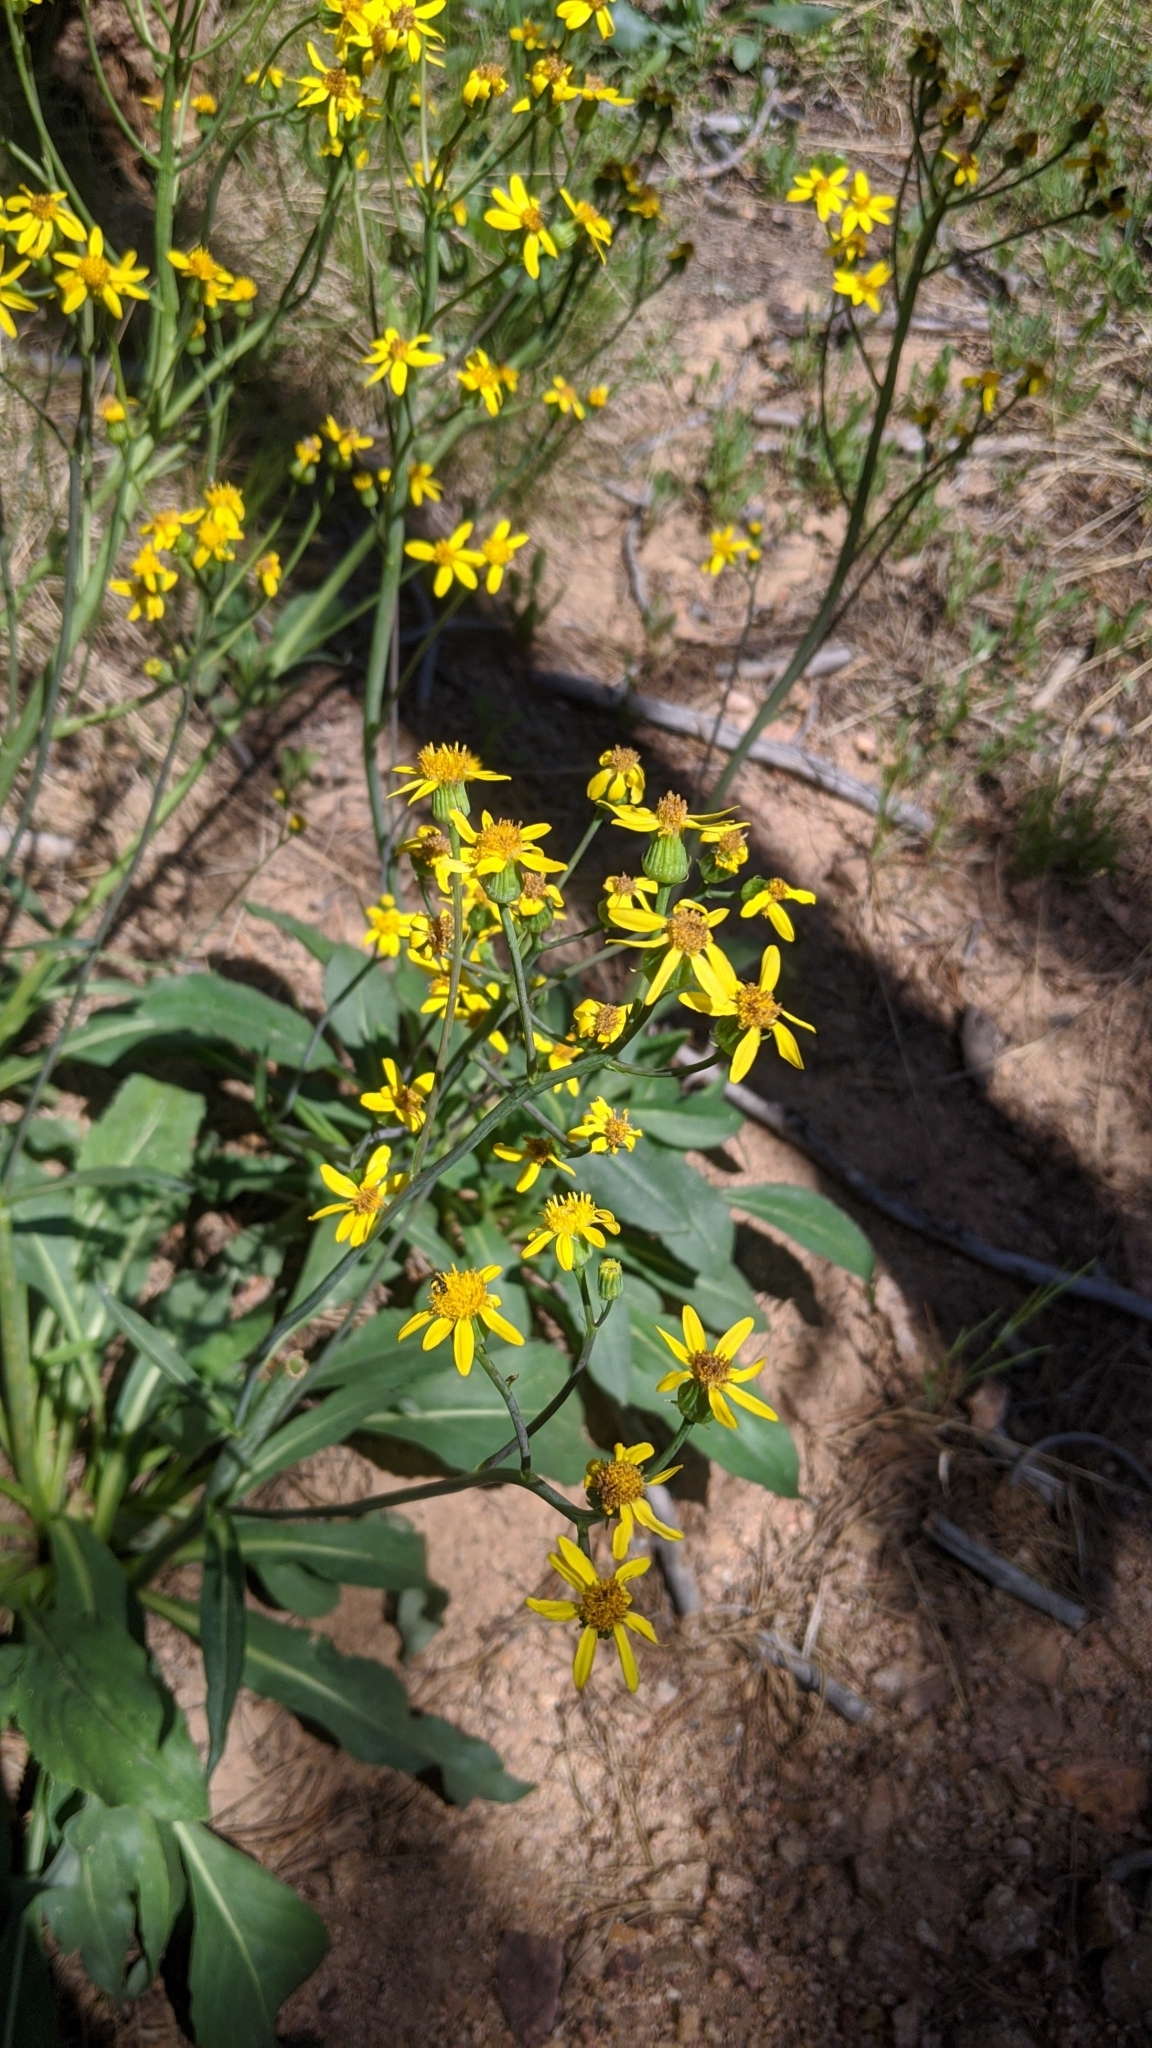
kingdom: Plantae
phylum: Tracheophyta
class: Magnoliopsida
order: Asterales
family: Asteraceae
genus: Senecio
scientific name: Senecio integerrimus
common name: Gaugeplant
